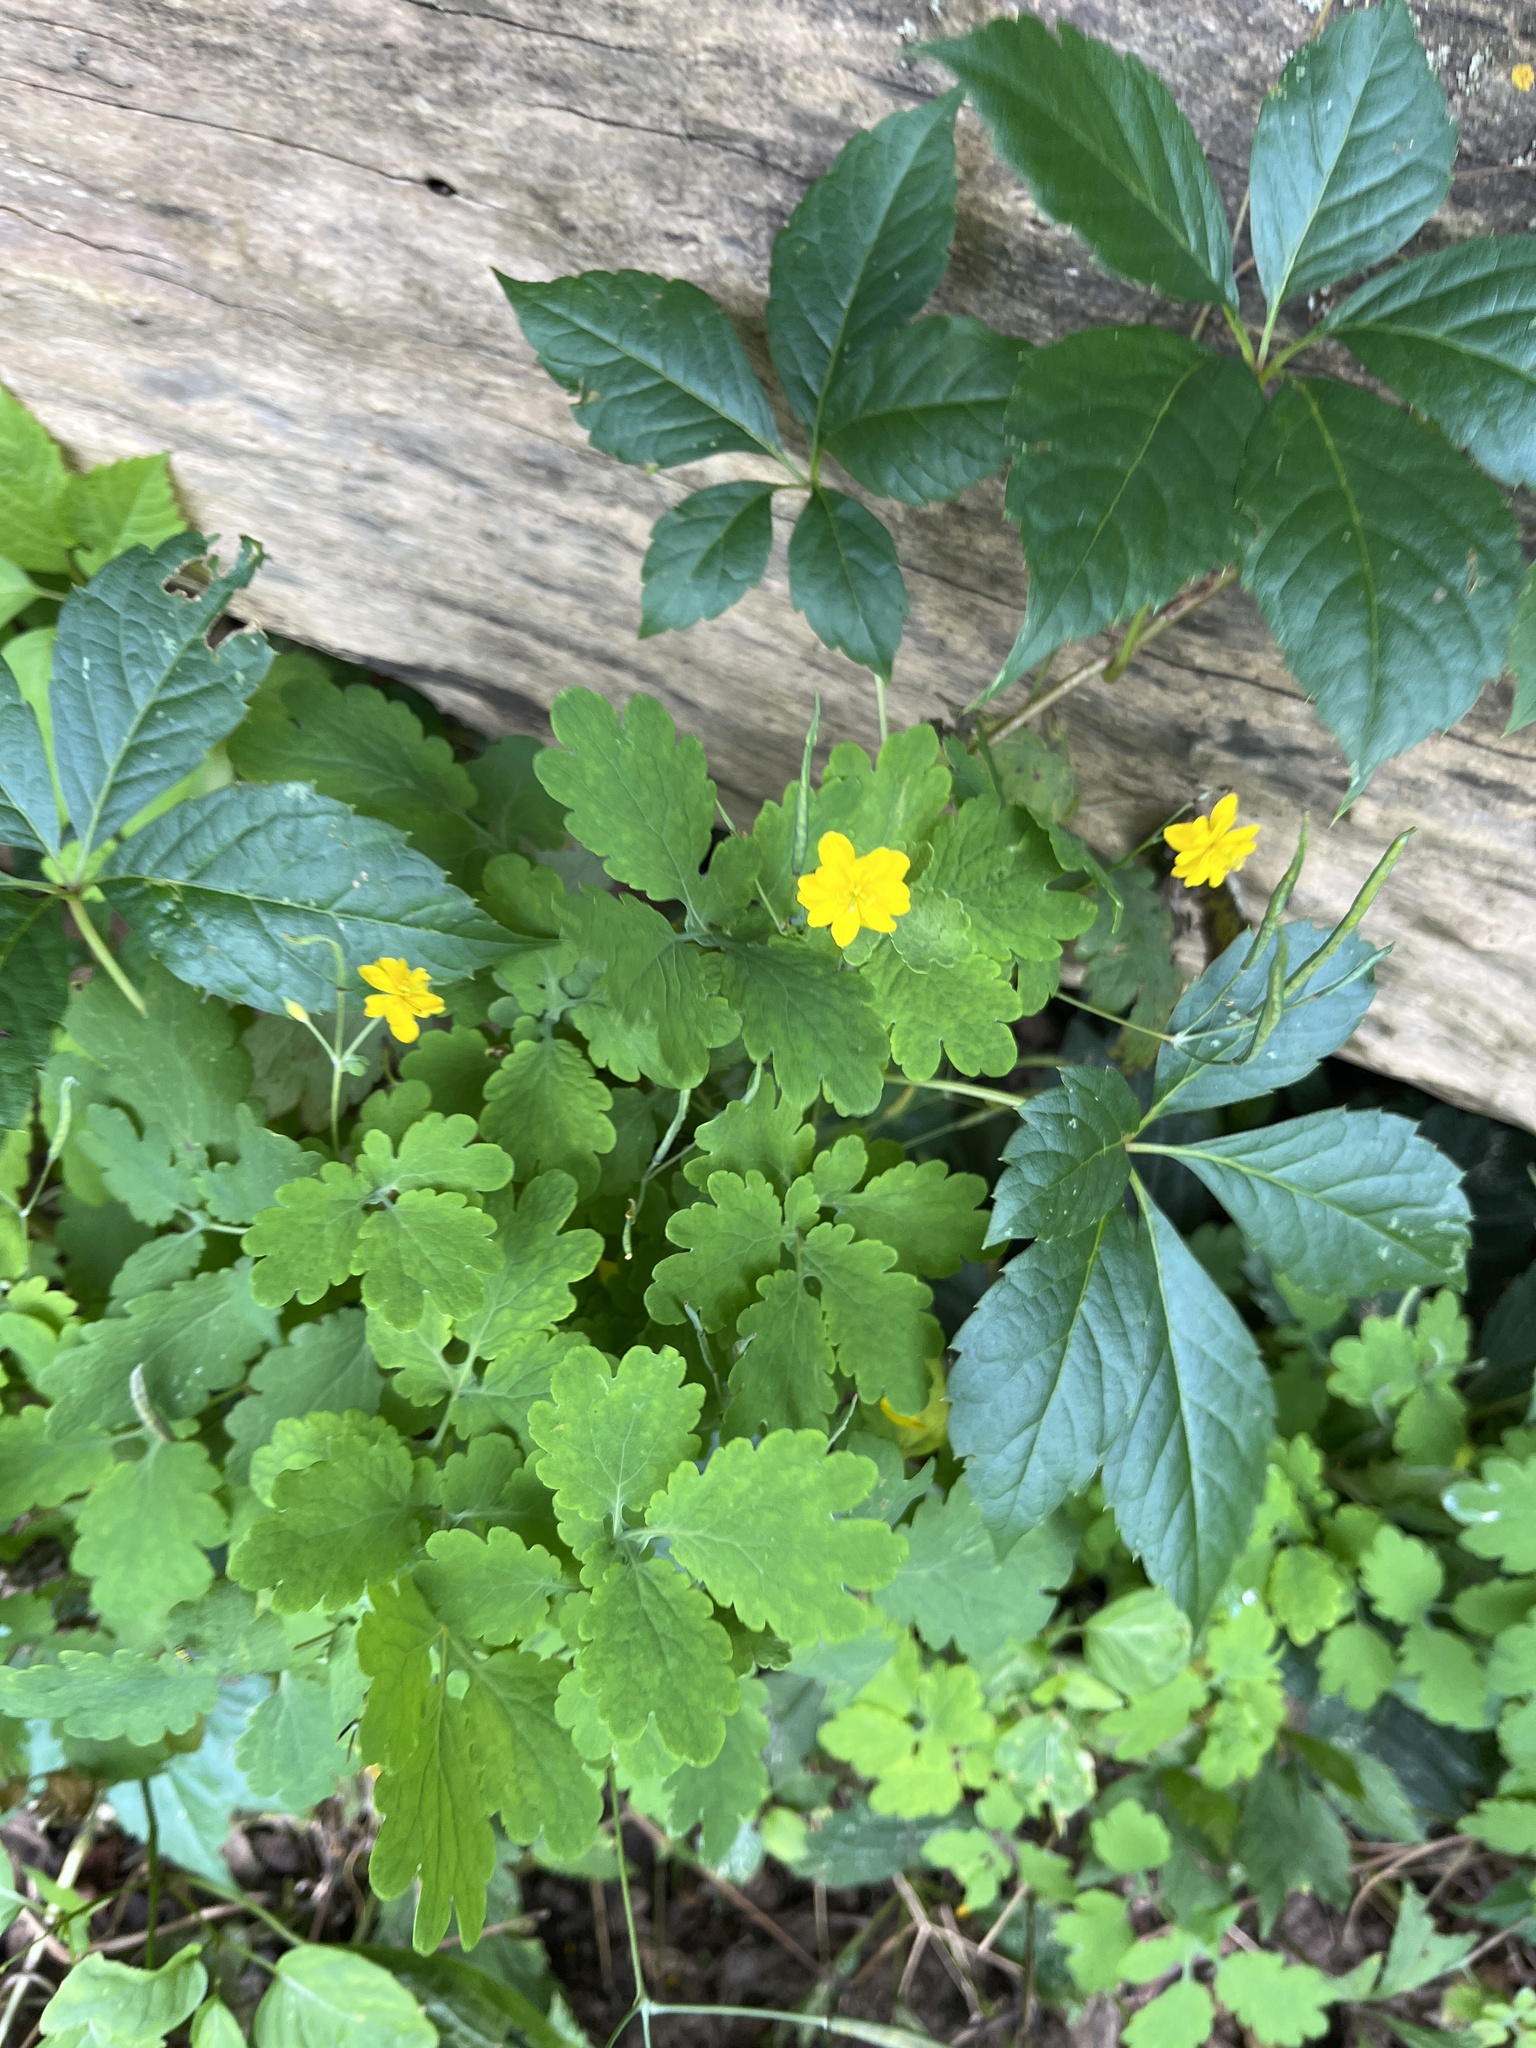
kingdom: Plantae
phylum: Tracheophyta
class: Magnoliopsida
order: Ranunculales
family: Papaveraceae
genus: Chelidonium
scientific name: Chelidonium majus
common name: Greater celandine
